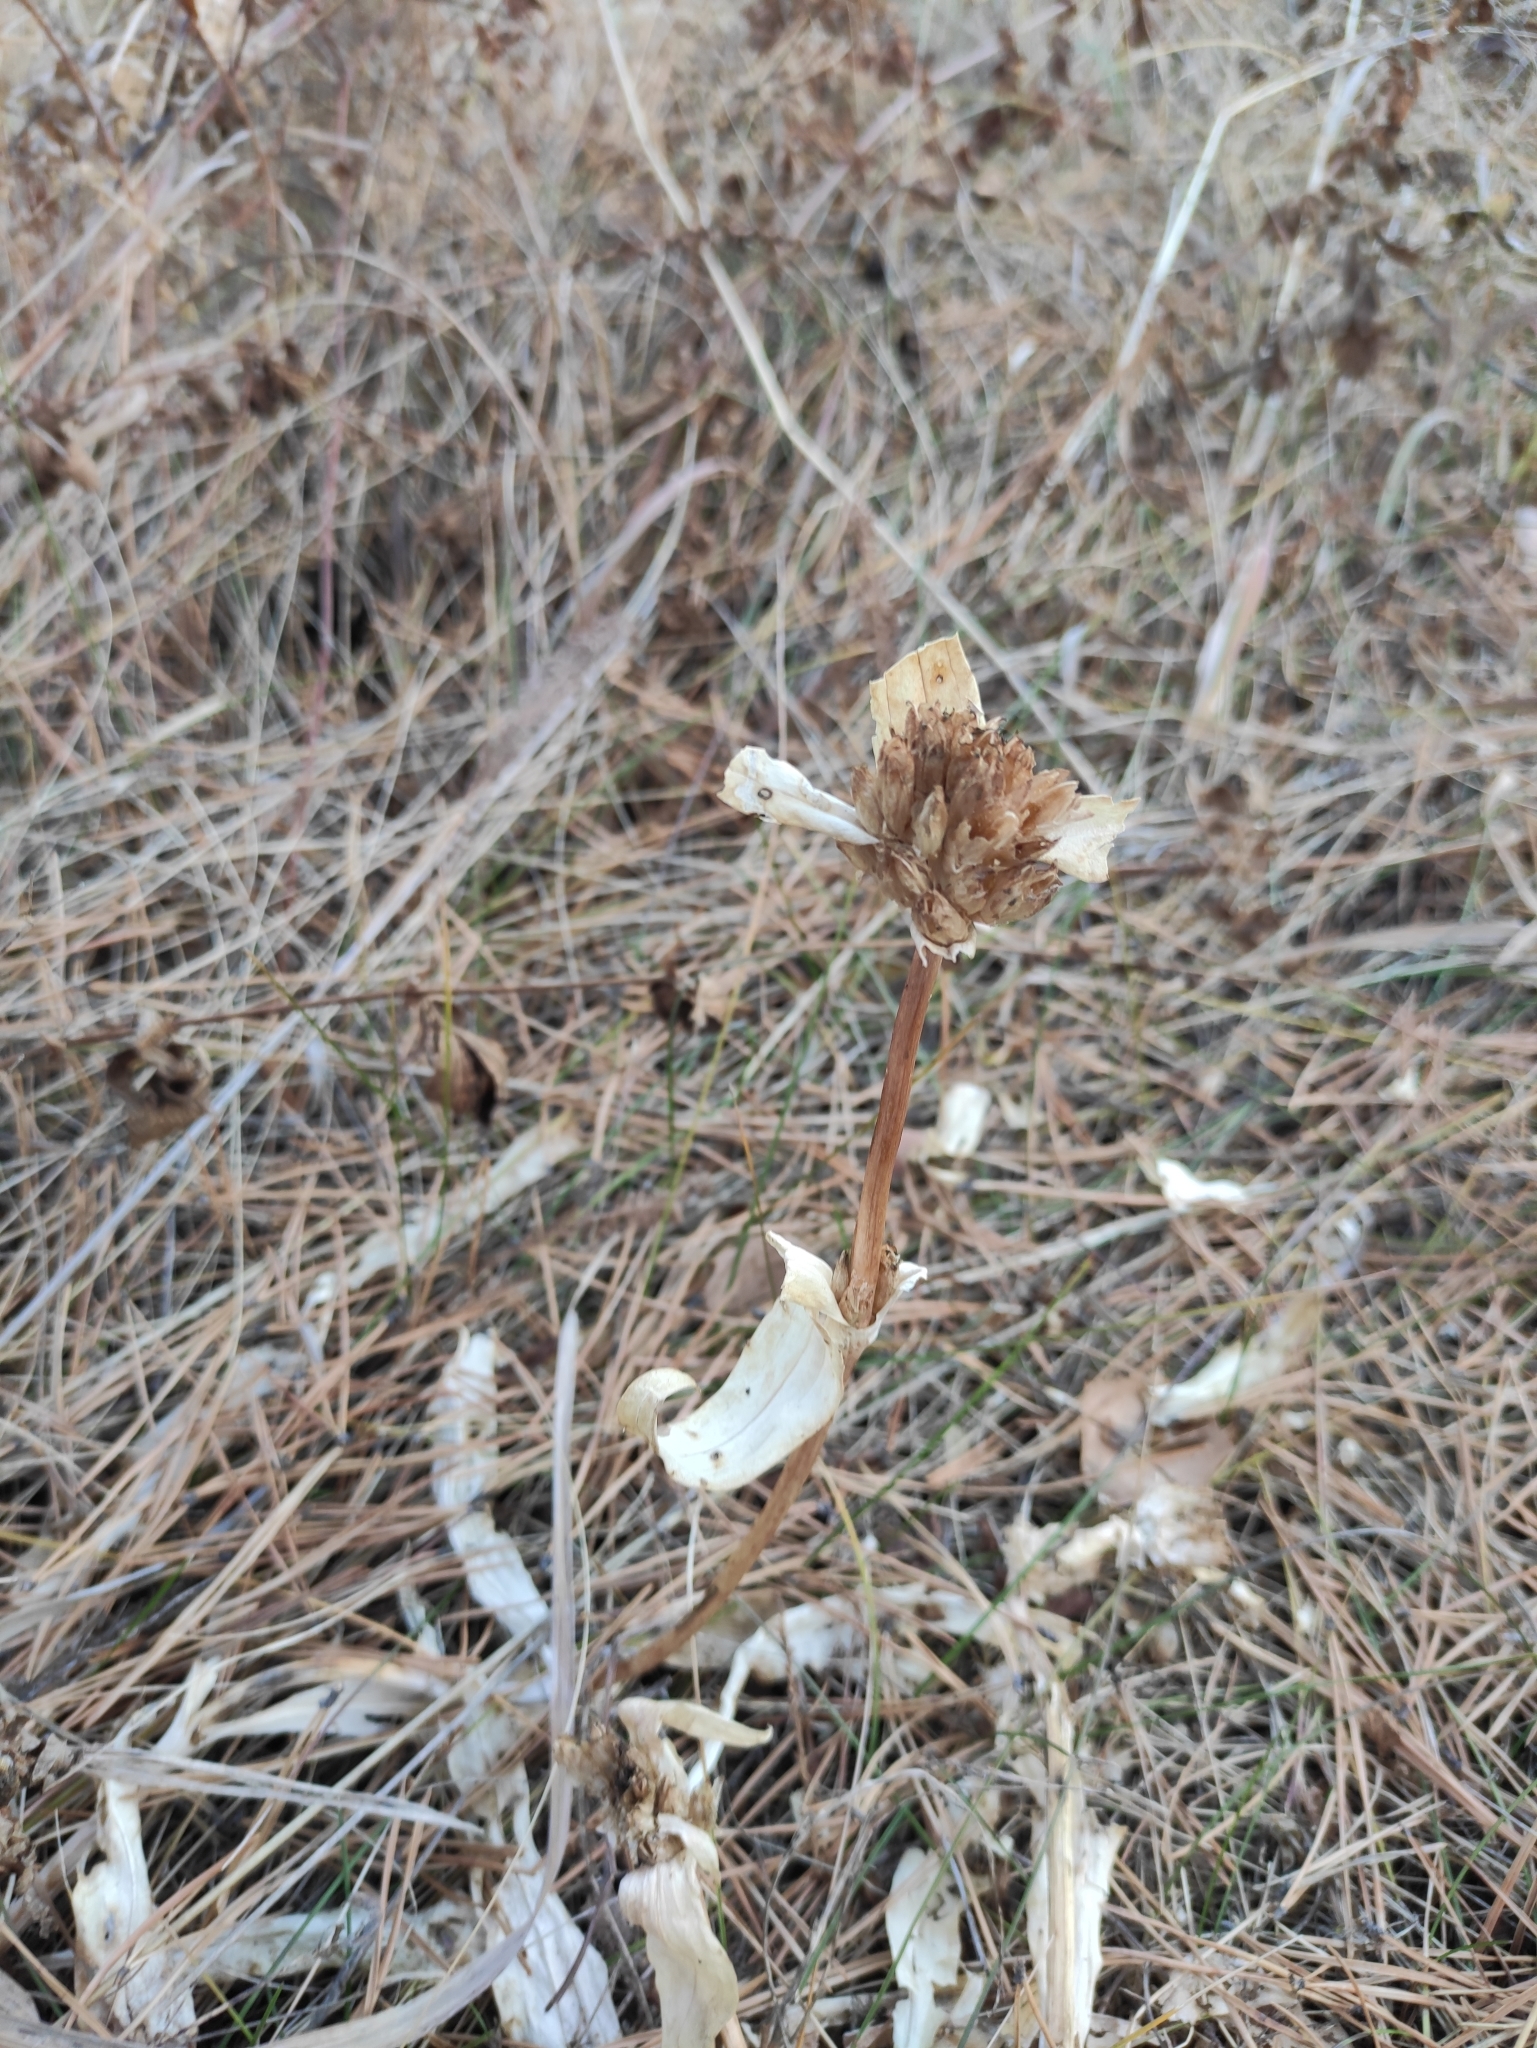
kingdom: Plantae
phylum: Tracheophyta
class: Magnoliopsida
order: Gentianales
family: Gentianaceae
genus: Gentiana
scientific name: Gentiana macrophylla
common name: Large-leaf gentian
